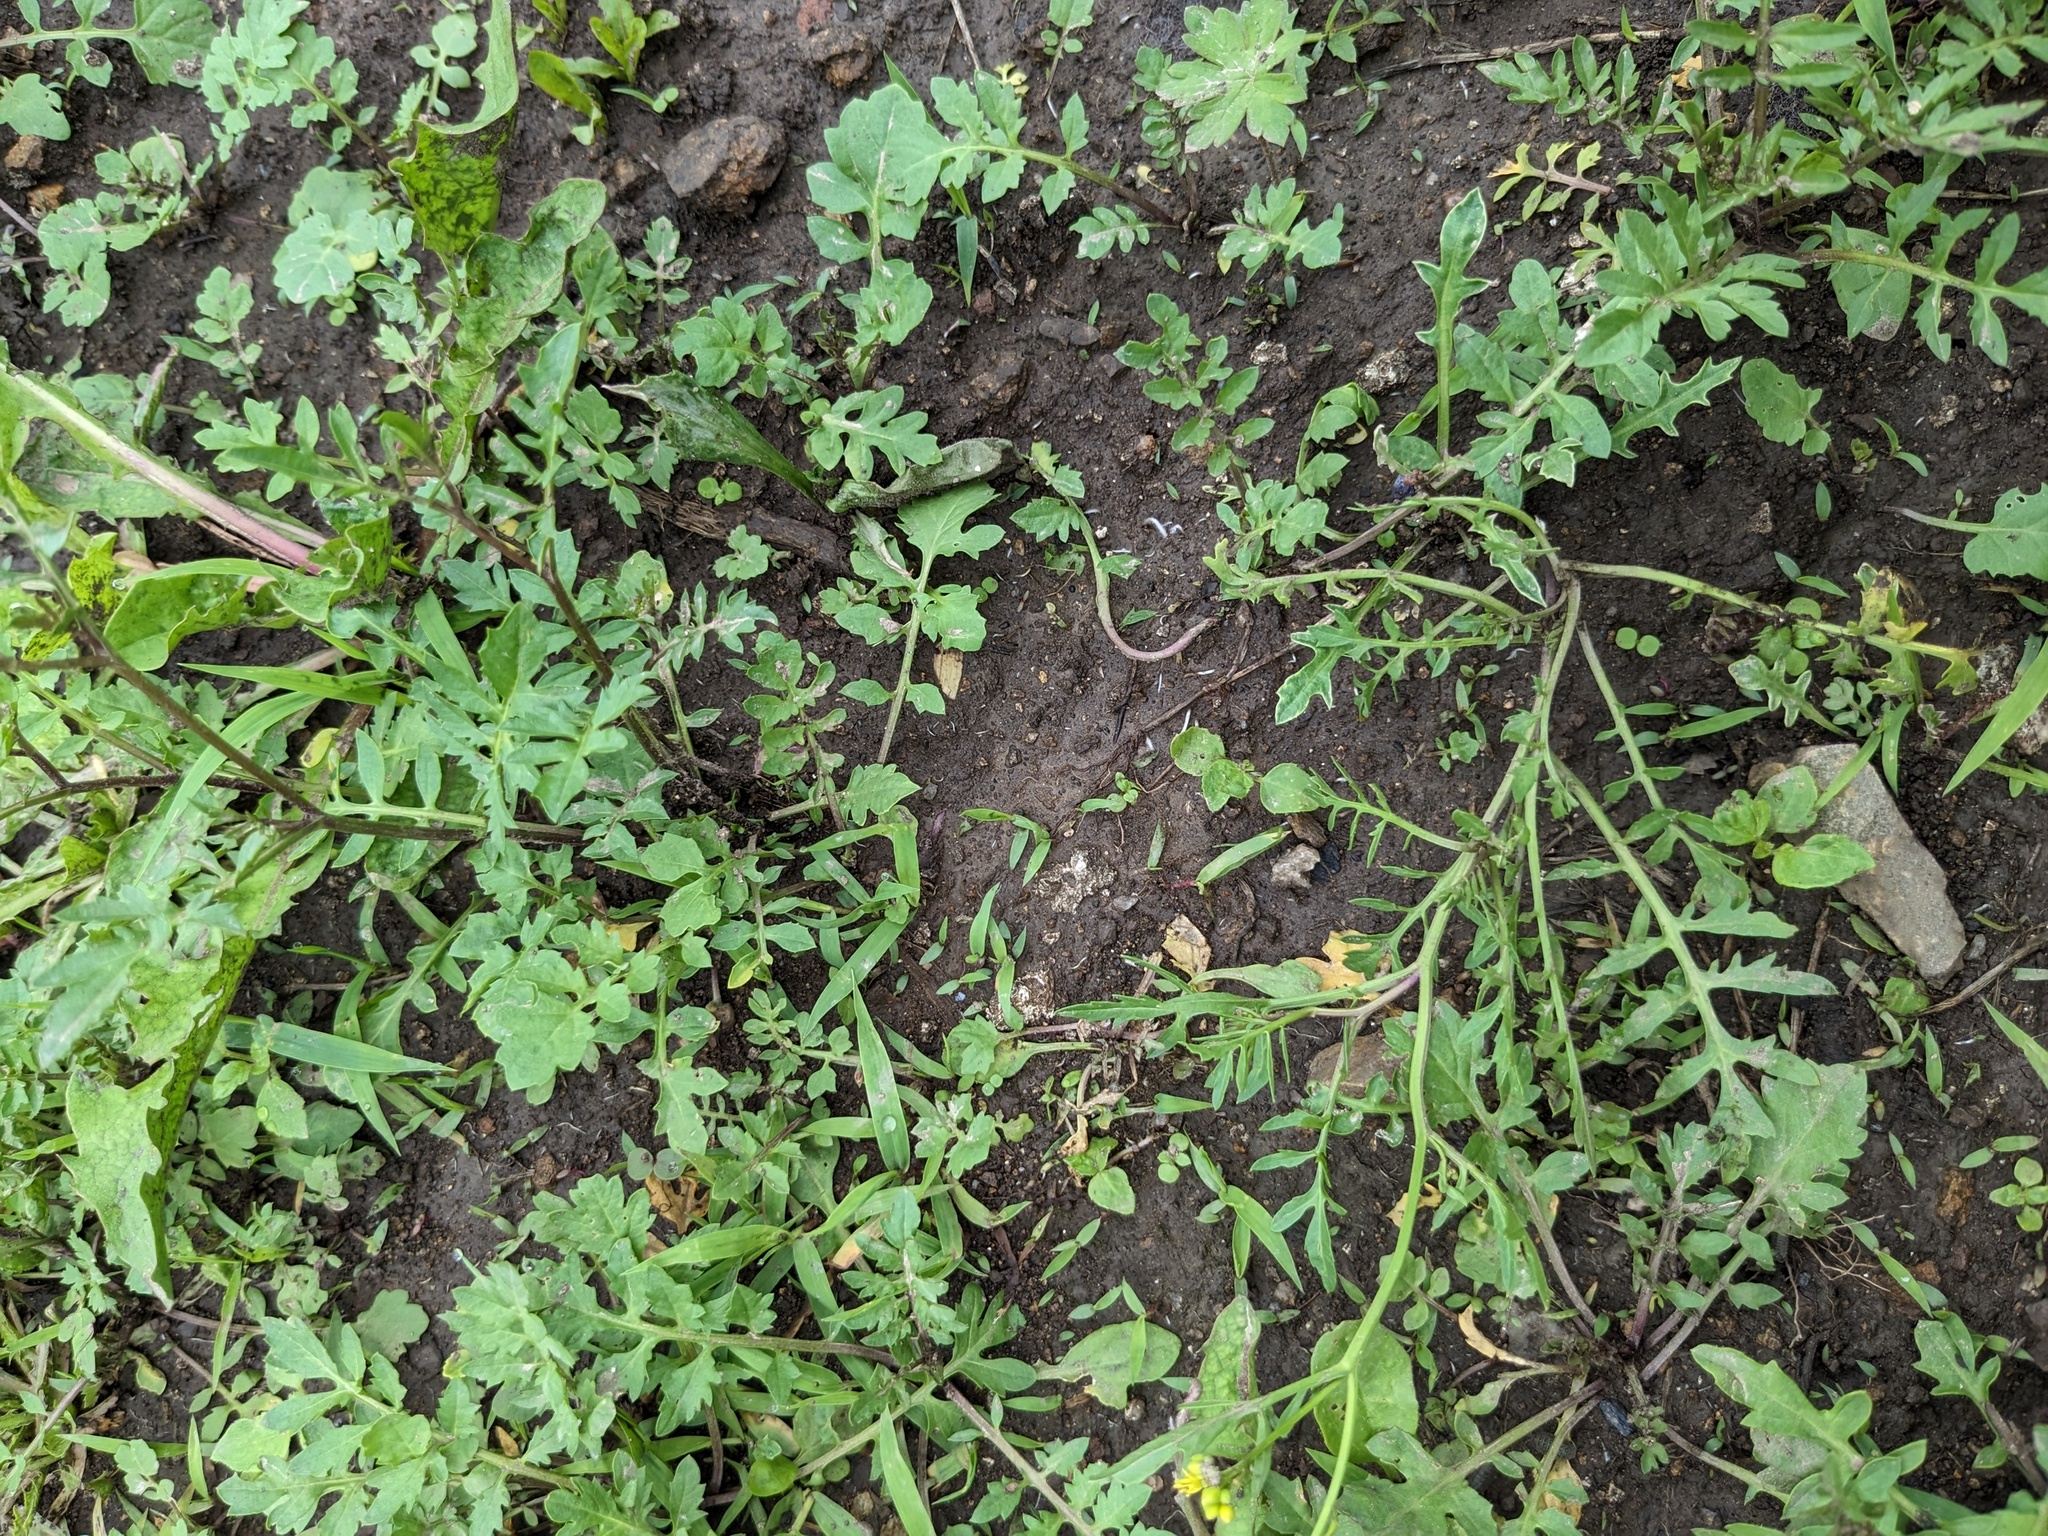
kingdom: Plantae
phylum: Tracheophyta
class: Magnoliopsida
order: Brassicales
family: Brassicaceae
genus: Rorippa
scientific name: Rorippa sylvestris
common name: Creeping yellowcress
